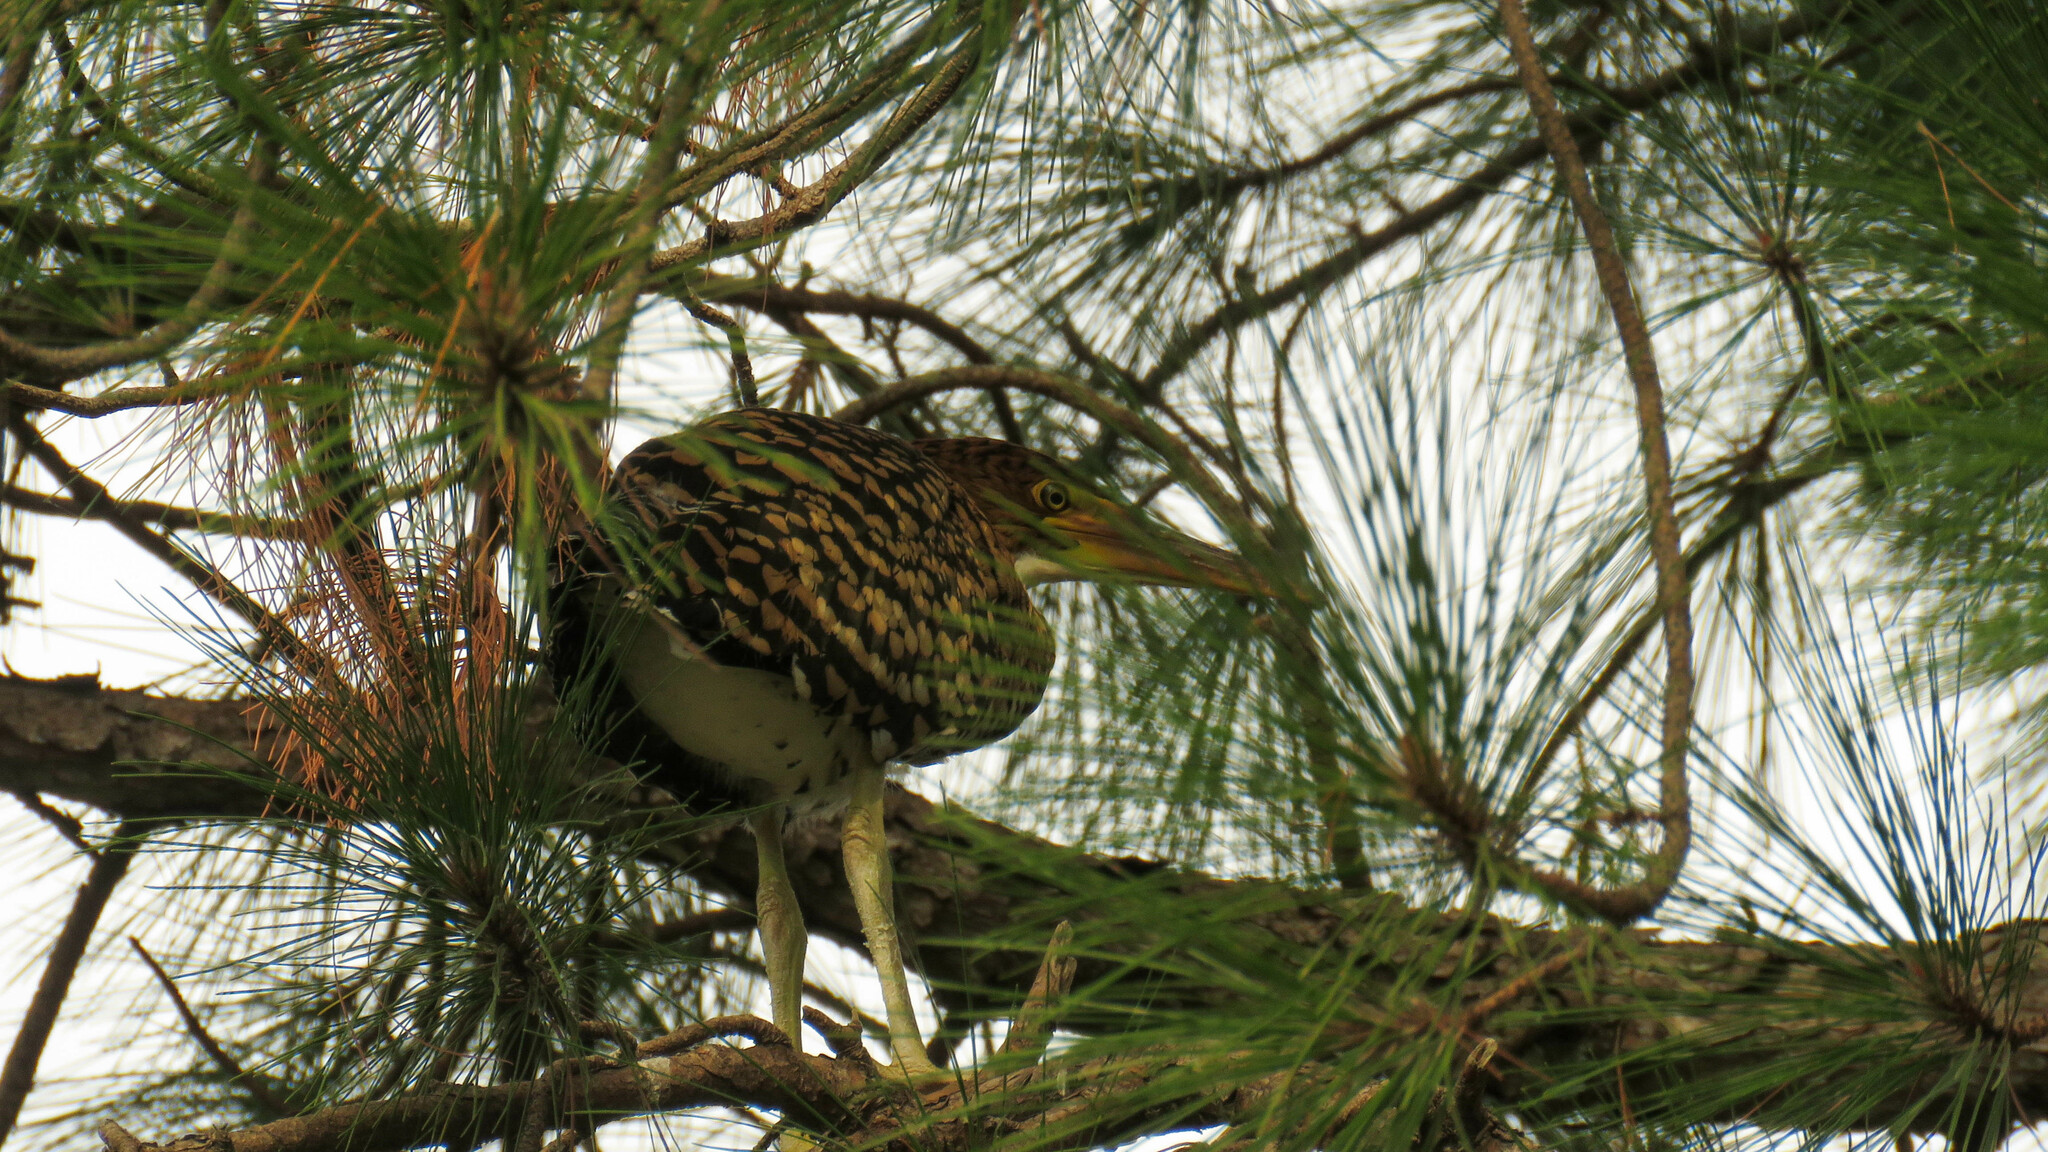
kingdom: Animalia
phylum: Chordata
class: Aves
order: Pelecaniformes
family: Ardeidae
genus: Tigrisoma
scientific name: Tigrisoma lineatum
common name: Rufescent tiger-heron
